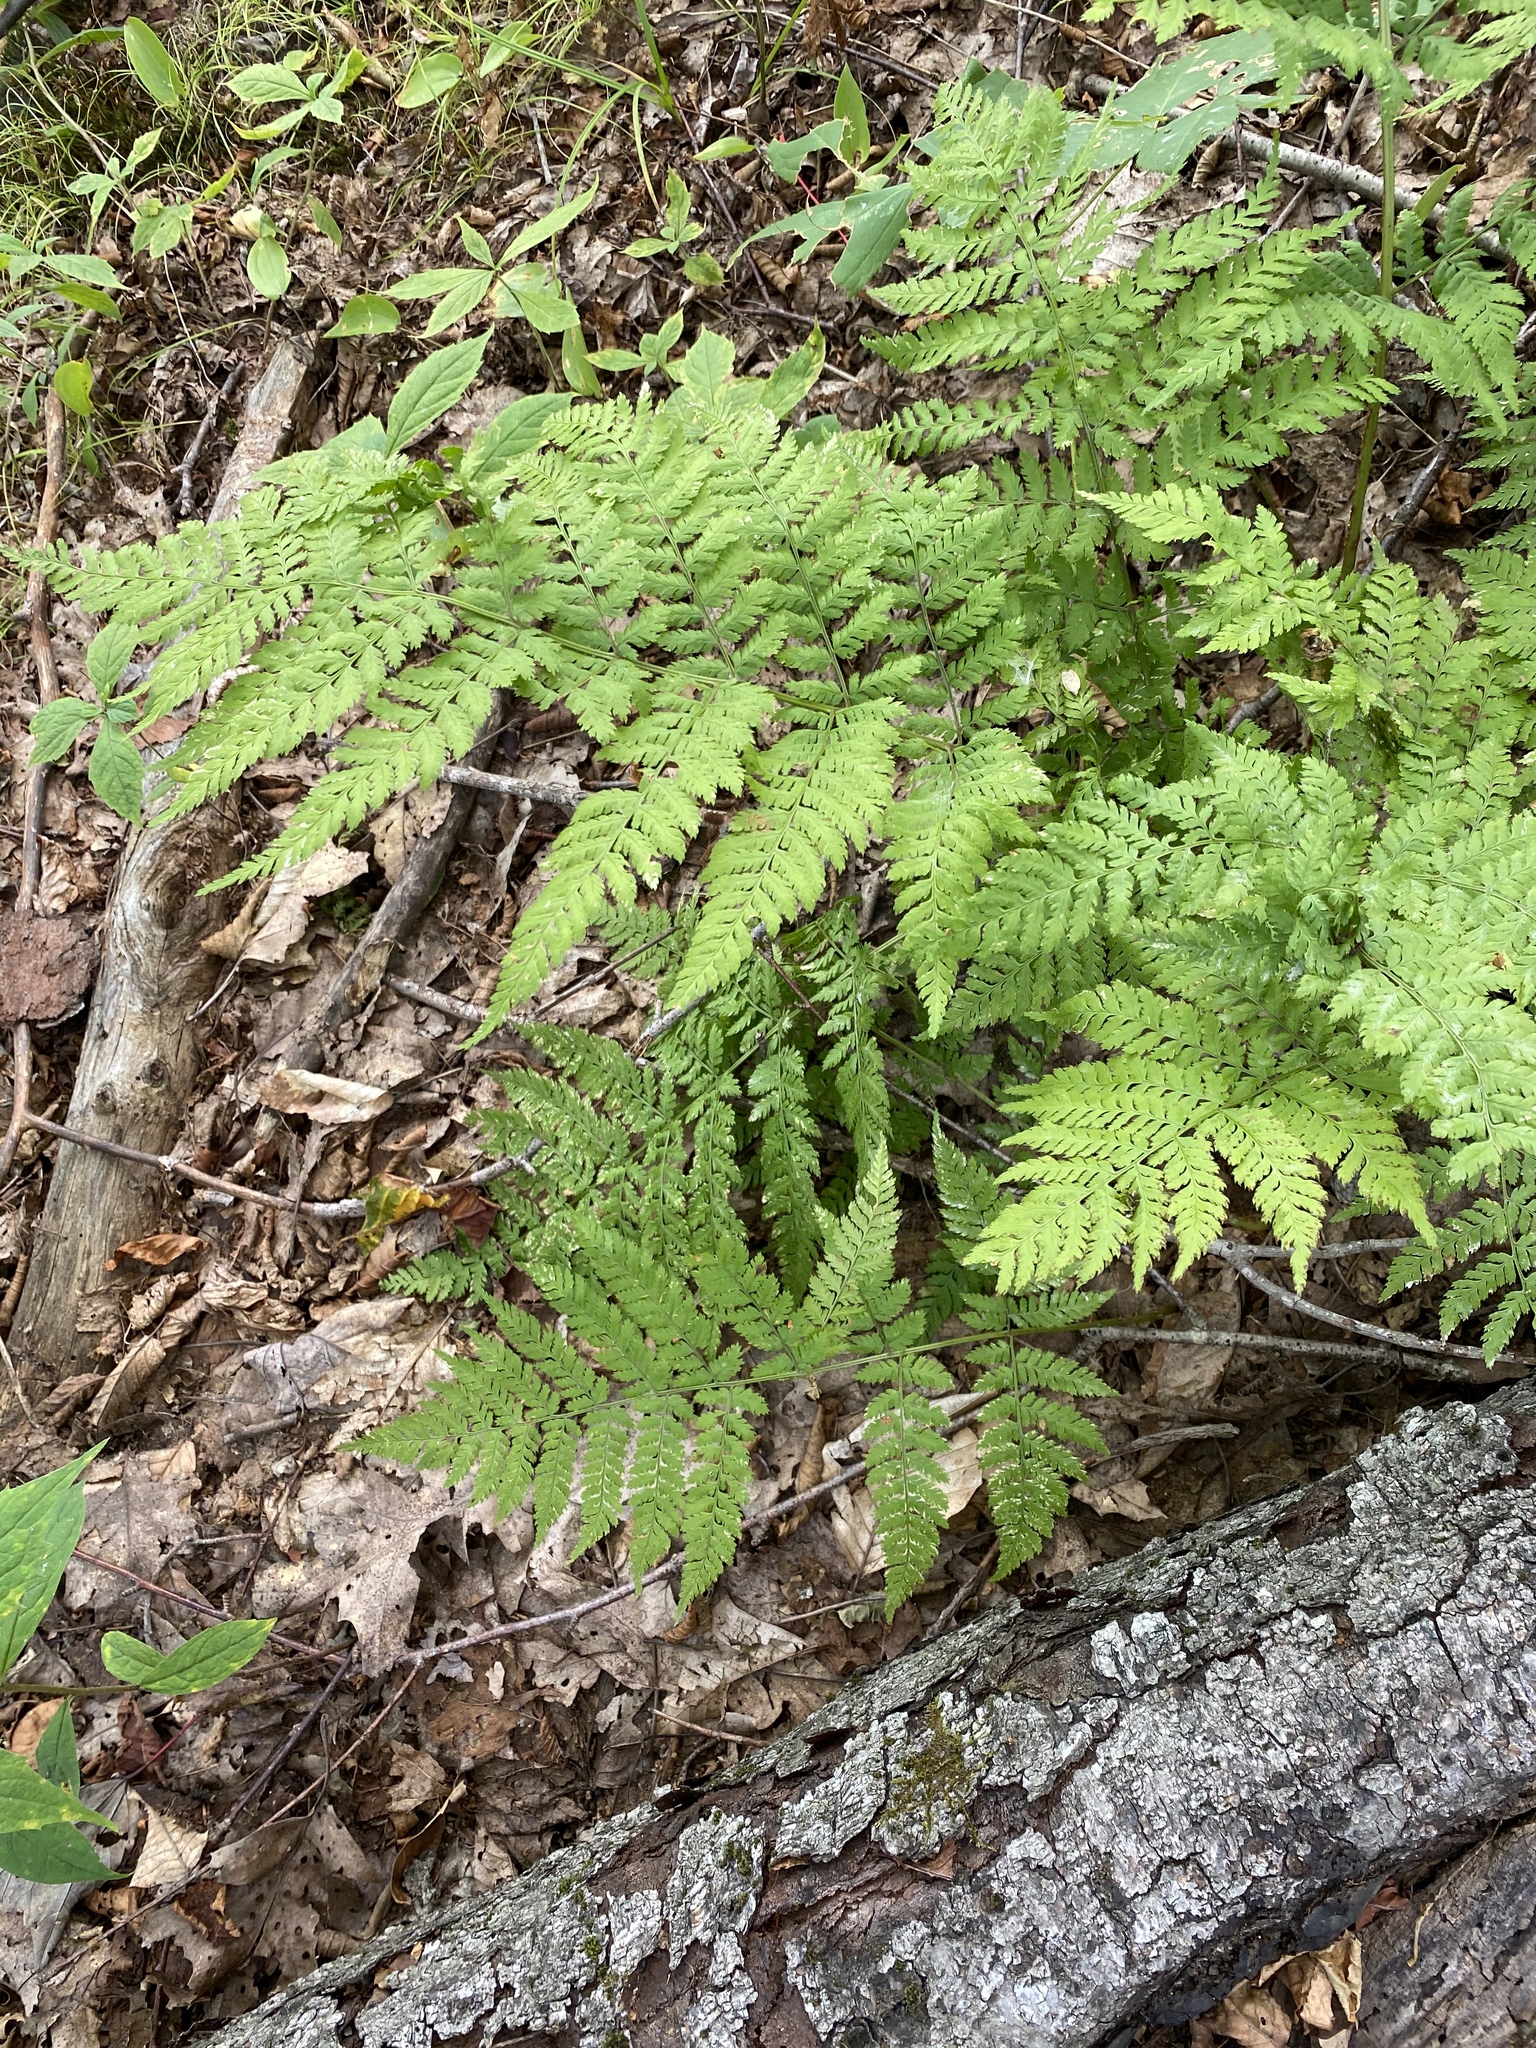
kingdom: Plantae
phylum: Tracheophyta
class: Polypodiopsida
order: Polypodiales
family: Dryopteridaceae
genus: Dryopteris
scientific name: Dryopteris campyloptera
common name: Mountain wood fern
